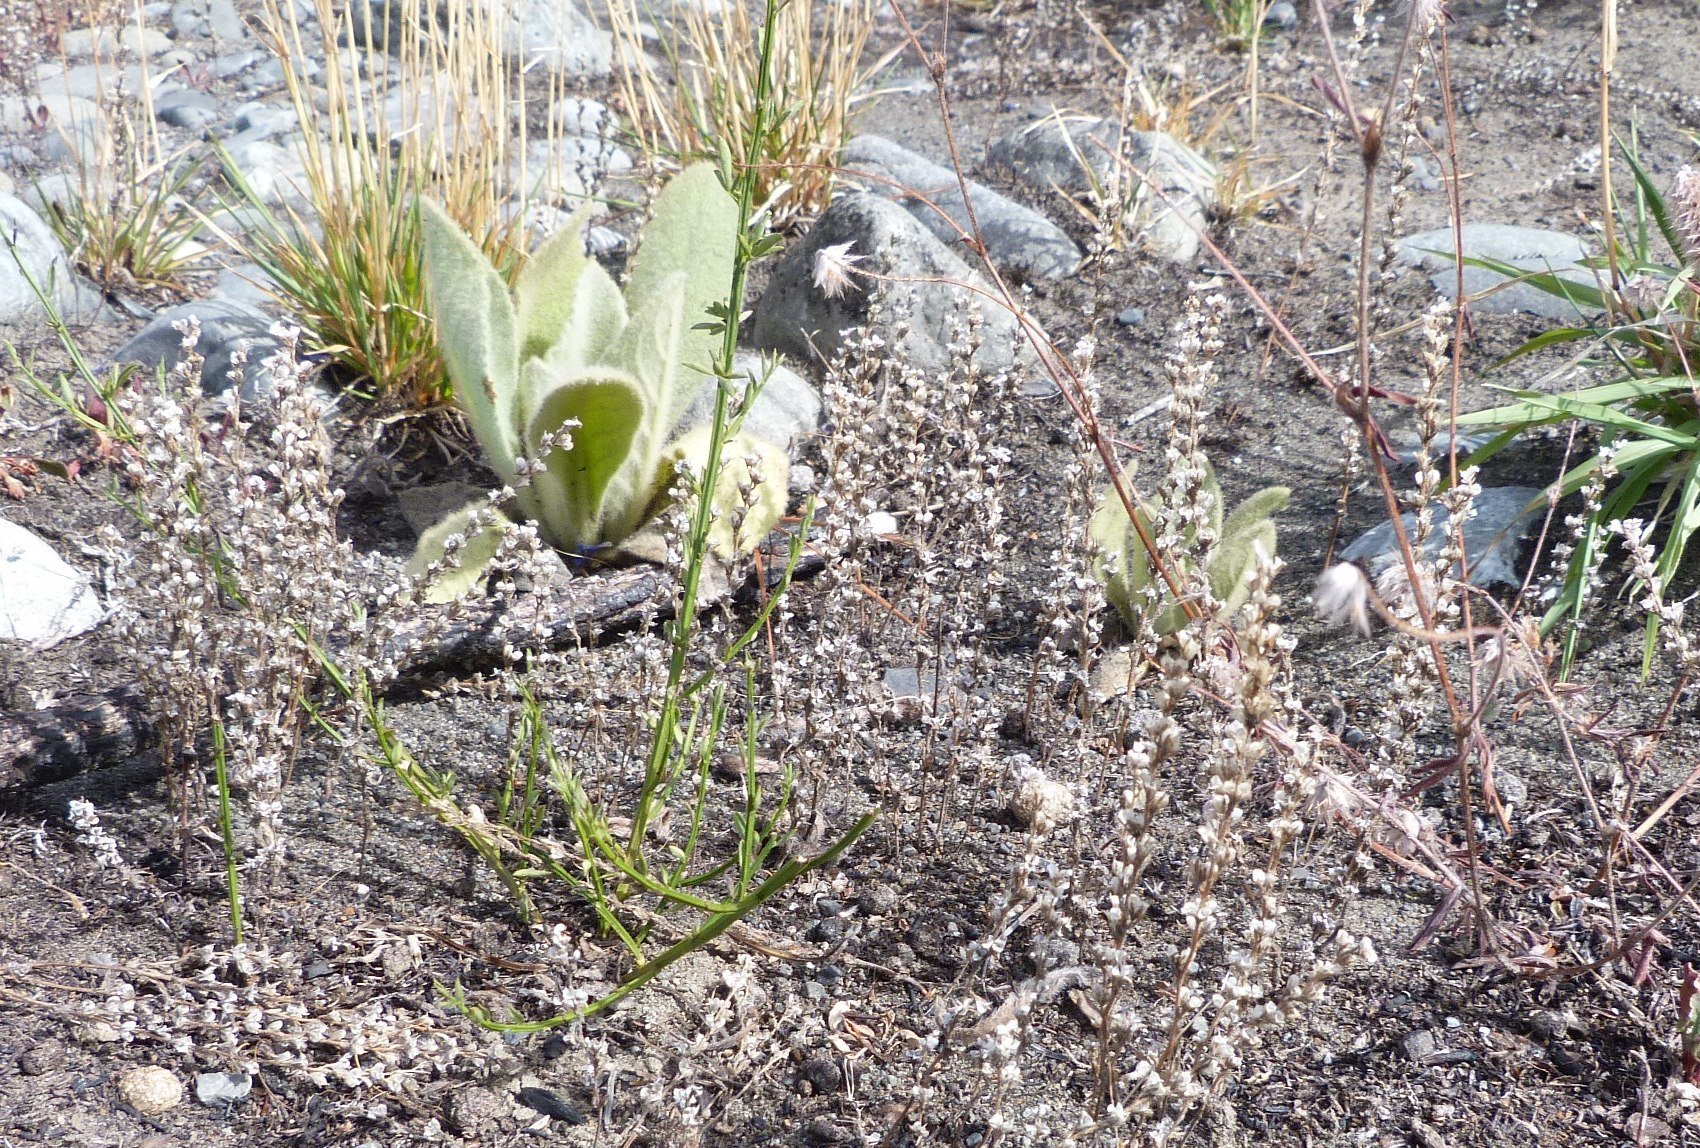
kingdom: Plantae
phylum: Tracheophyta
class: Magnoliopsida
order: Lamiales
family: Plantaginaceae
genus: Veronica
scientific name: Veronica verna
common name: Spring speedwell
